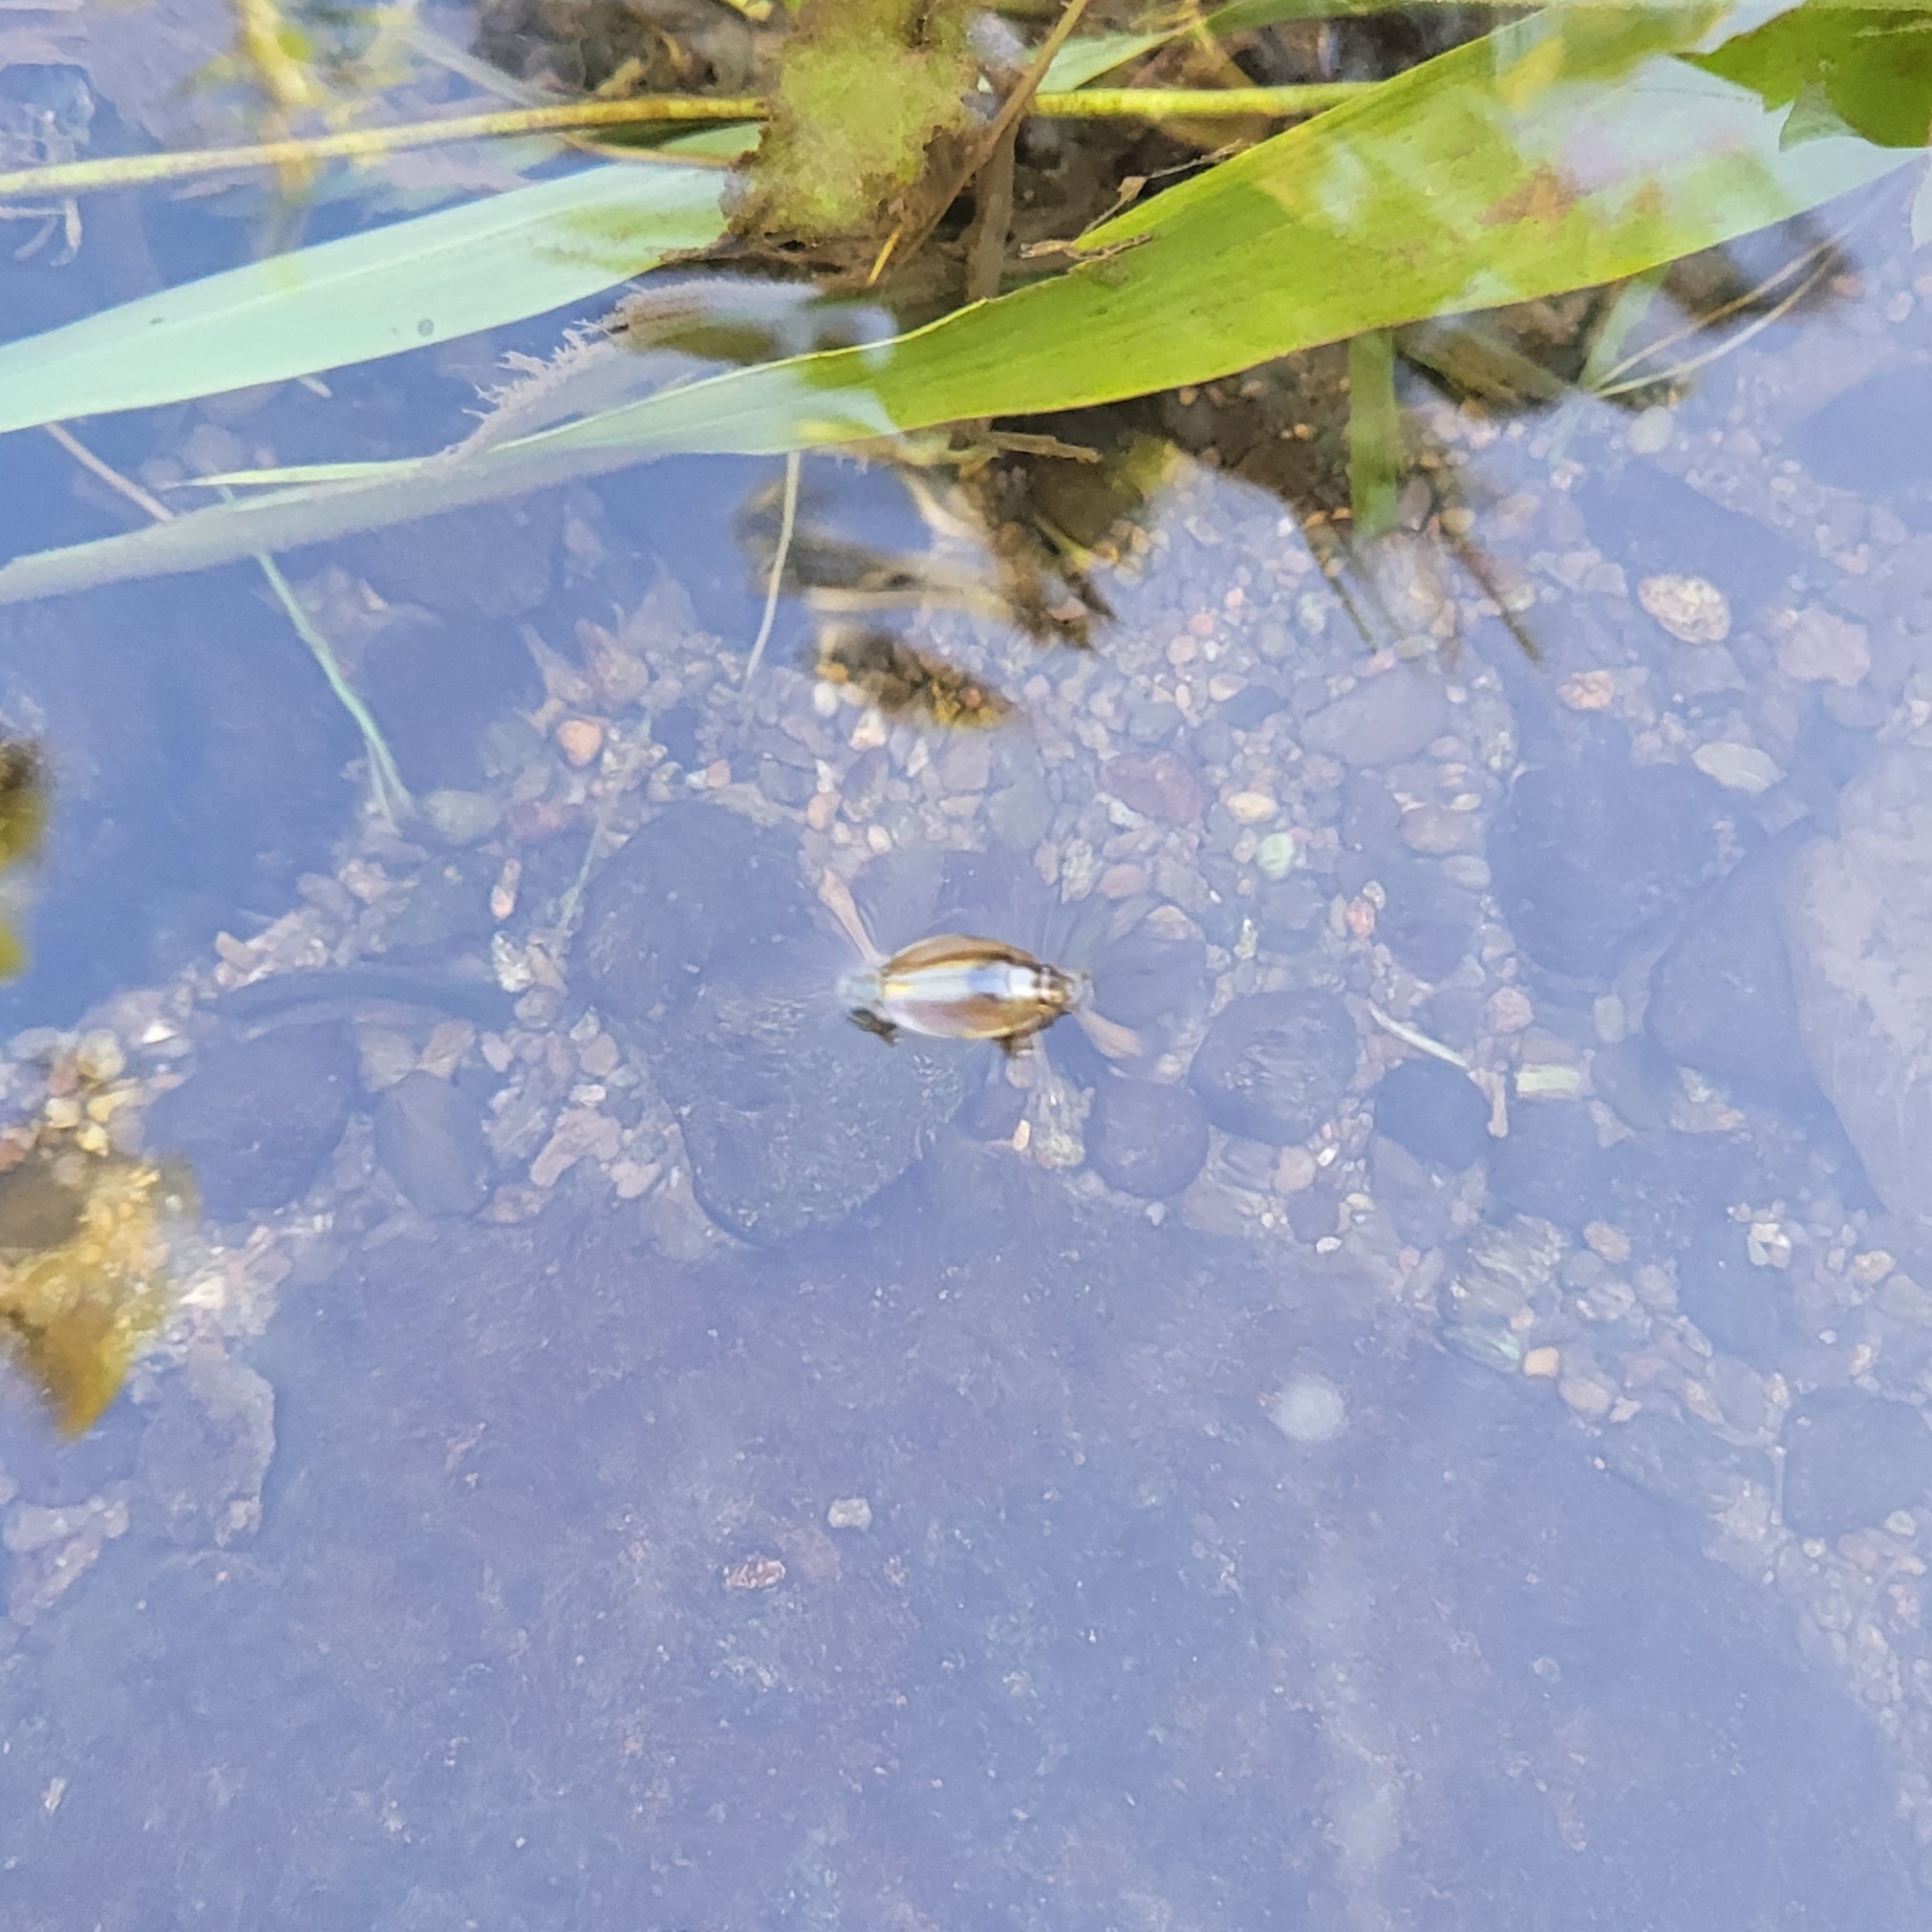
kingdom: Animalia
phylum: Arthropoda
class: Insecta
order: Coleoptera
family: Gyrinidae
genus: Dineutus
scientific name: Dineutus longimanus
